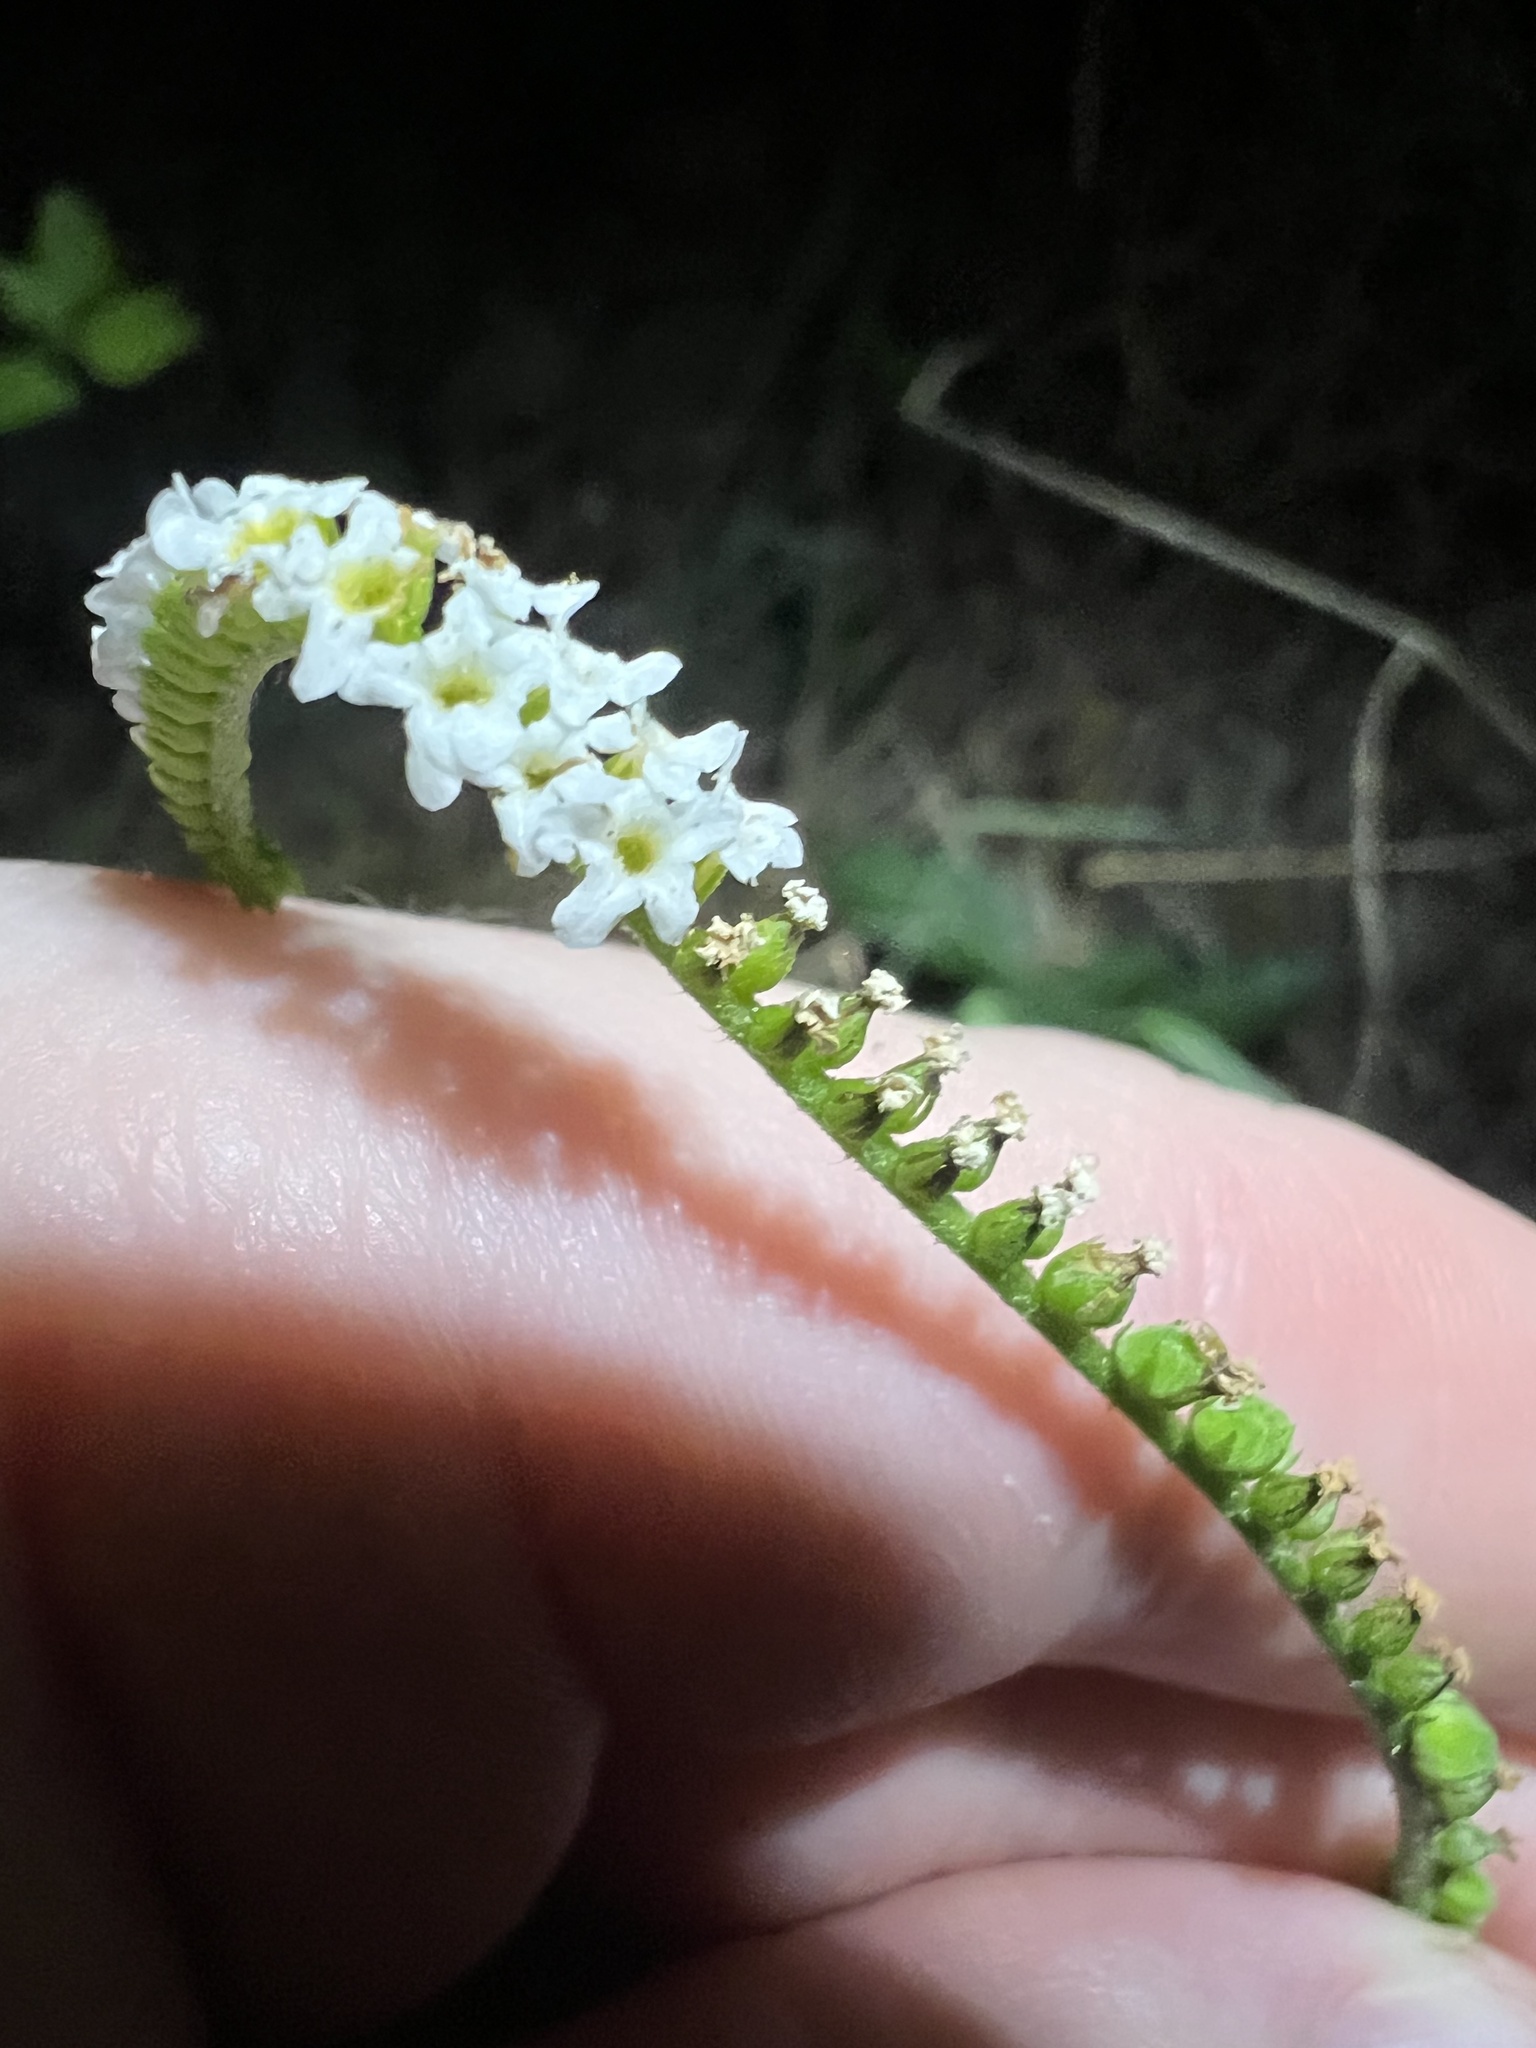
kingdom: Plantae
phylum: Tracheophyta
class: Magnoliopsida
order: Boraginales
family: Heliotropiaceae
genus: Heliotropium
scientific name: Heliotropium angiospermum
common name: Eye bright
